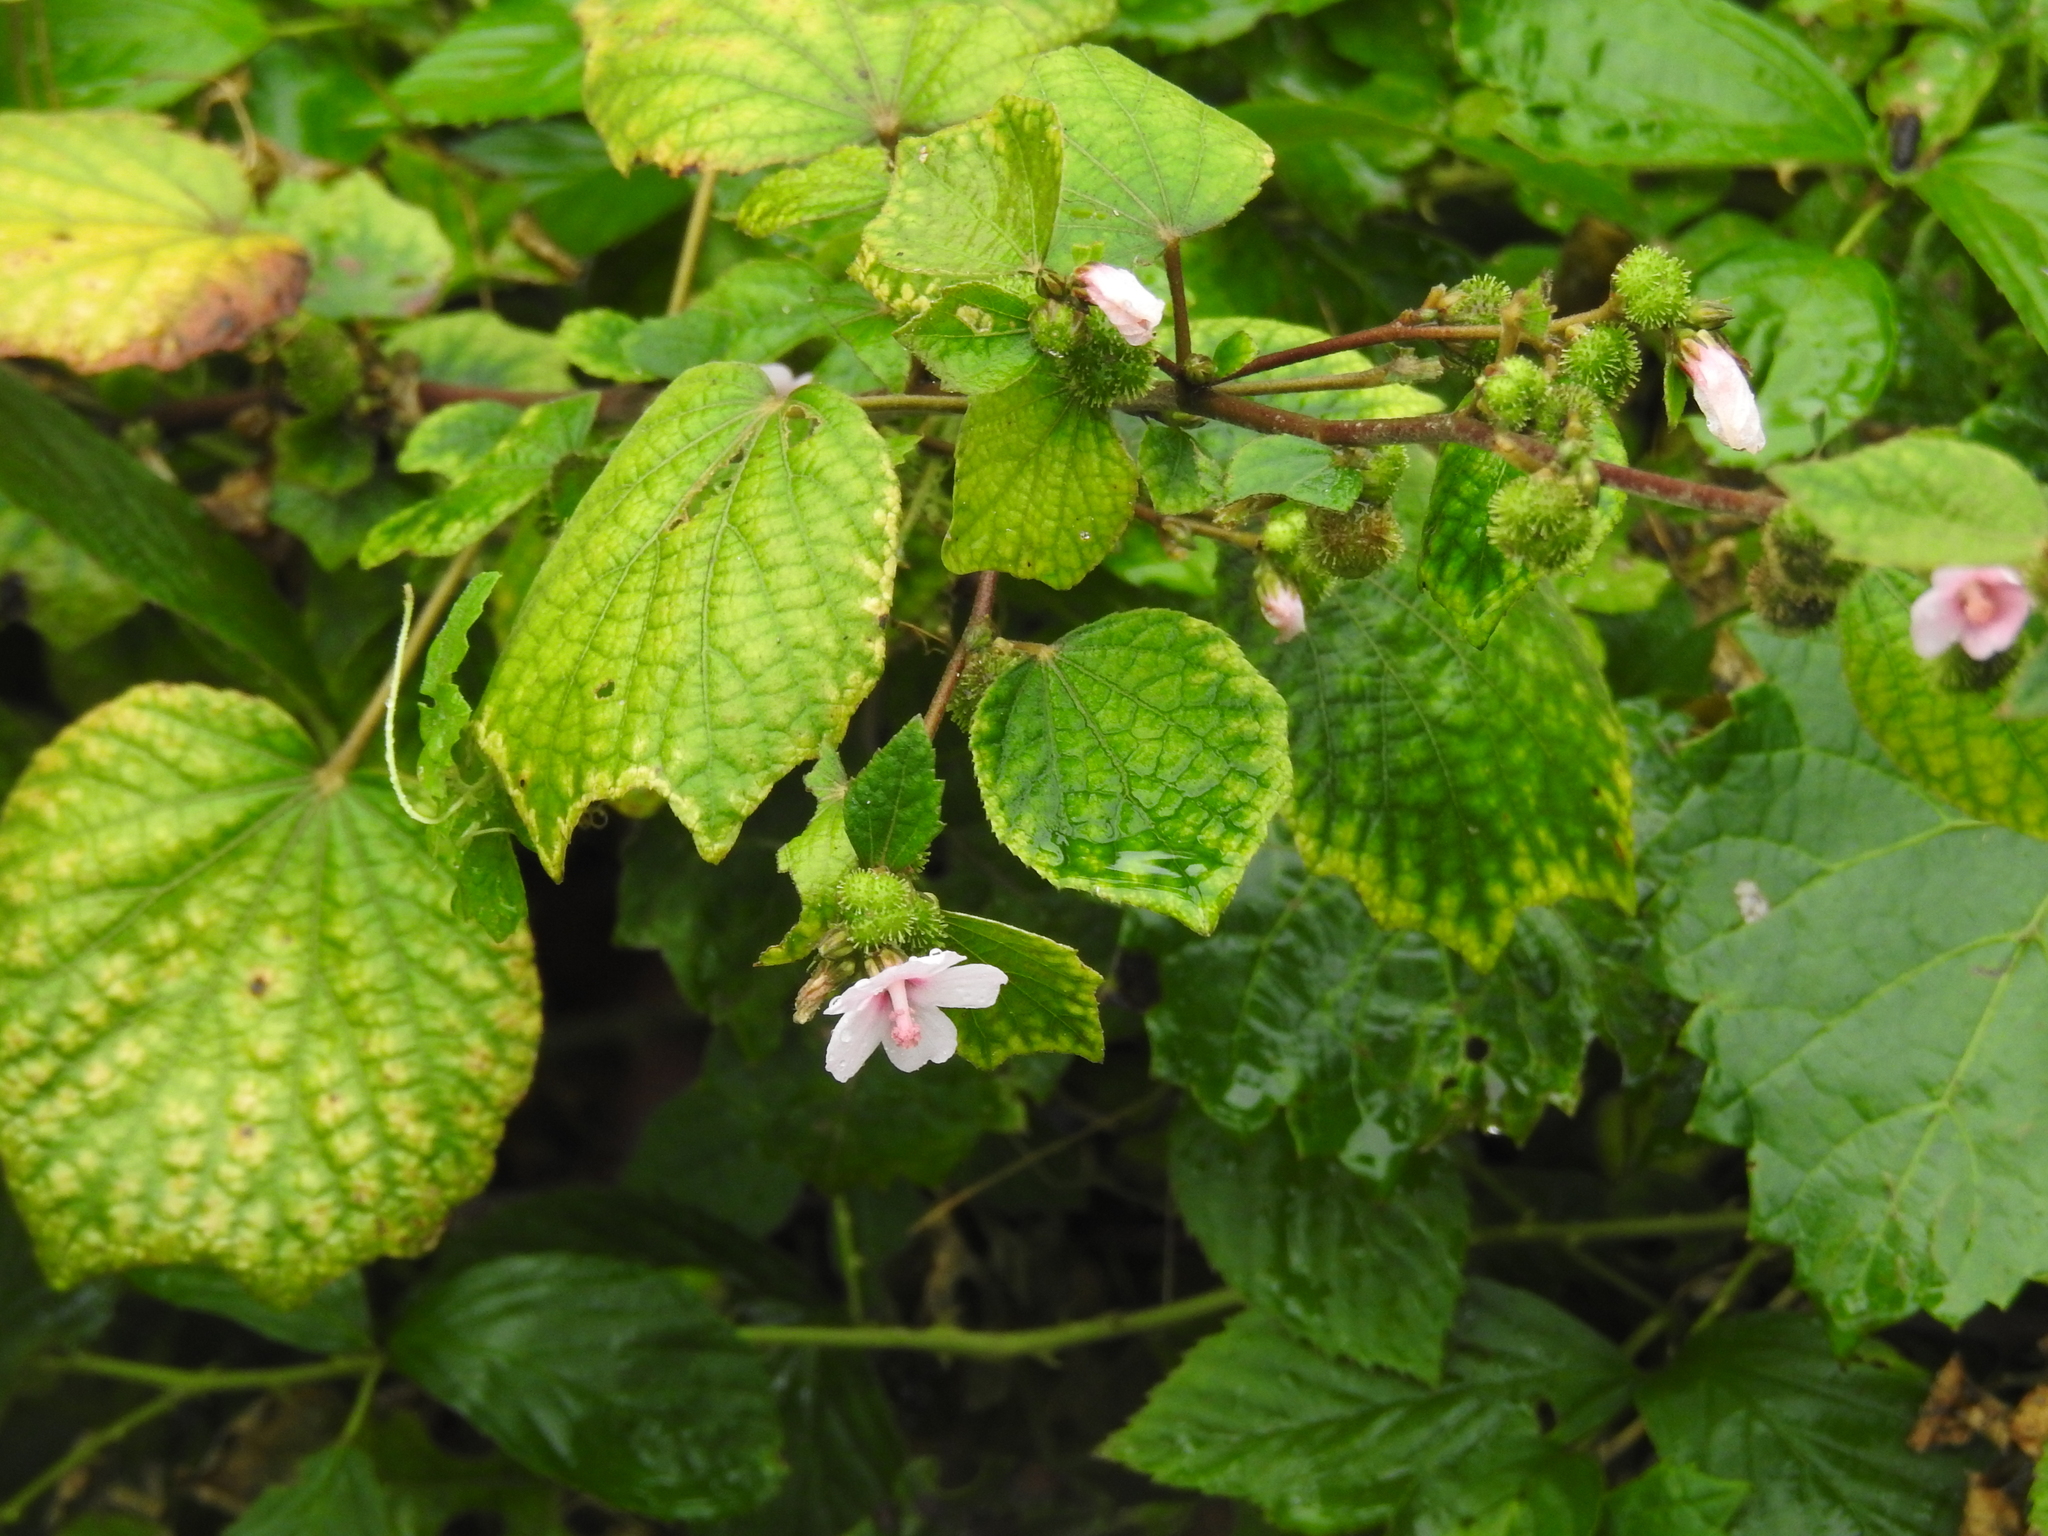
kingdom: Plantae
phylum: Tracheophyta
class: Magnoliopsida
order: Malvales
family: Malvaceae
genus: Urena
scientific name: Urena lobata
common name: Caesarweed
